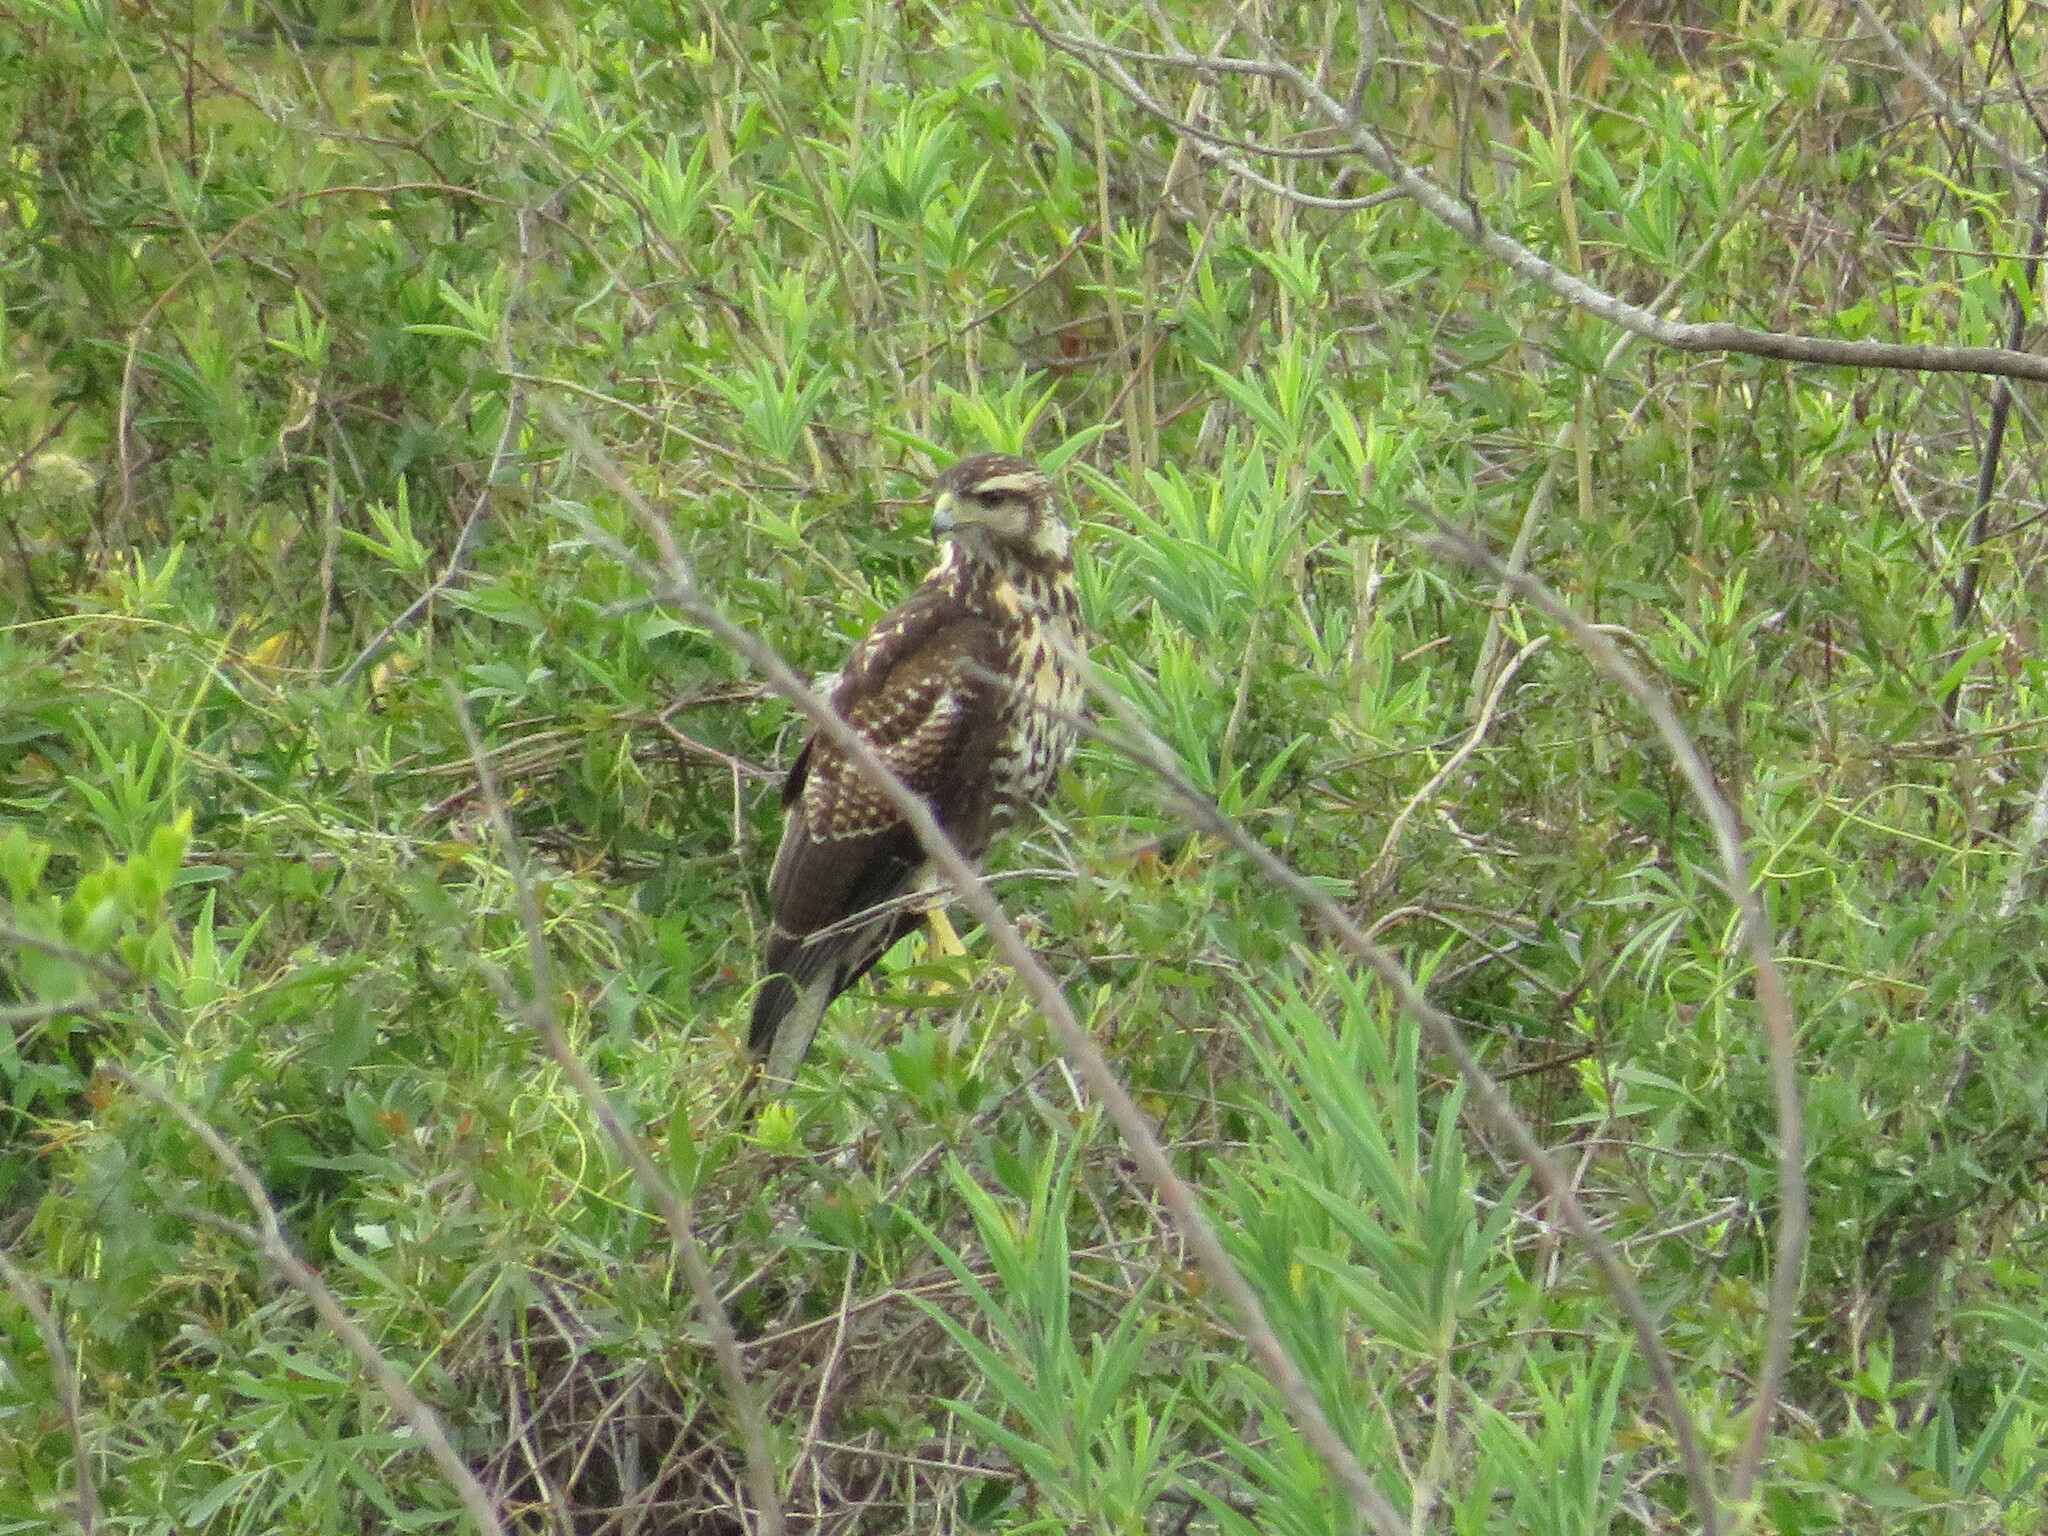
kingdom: Animalia
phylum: Chordata
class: Aves
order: Accipitriformes
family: Accipitridae
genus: Parabuteo
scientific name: Parabuteo unicinctus
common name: Harris's hawk
